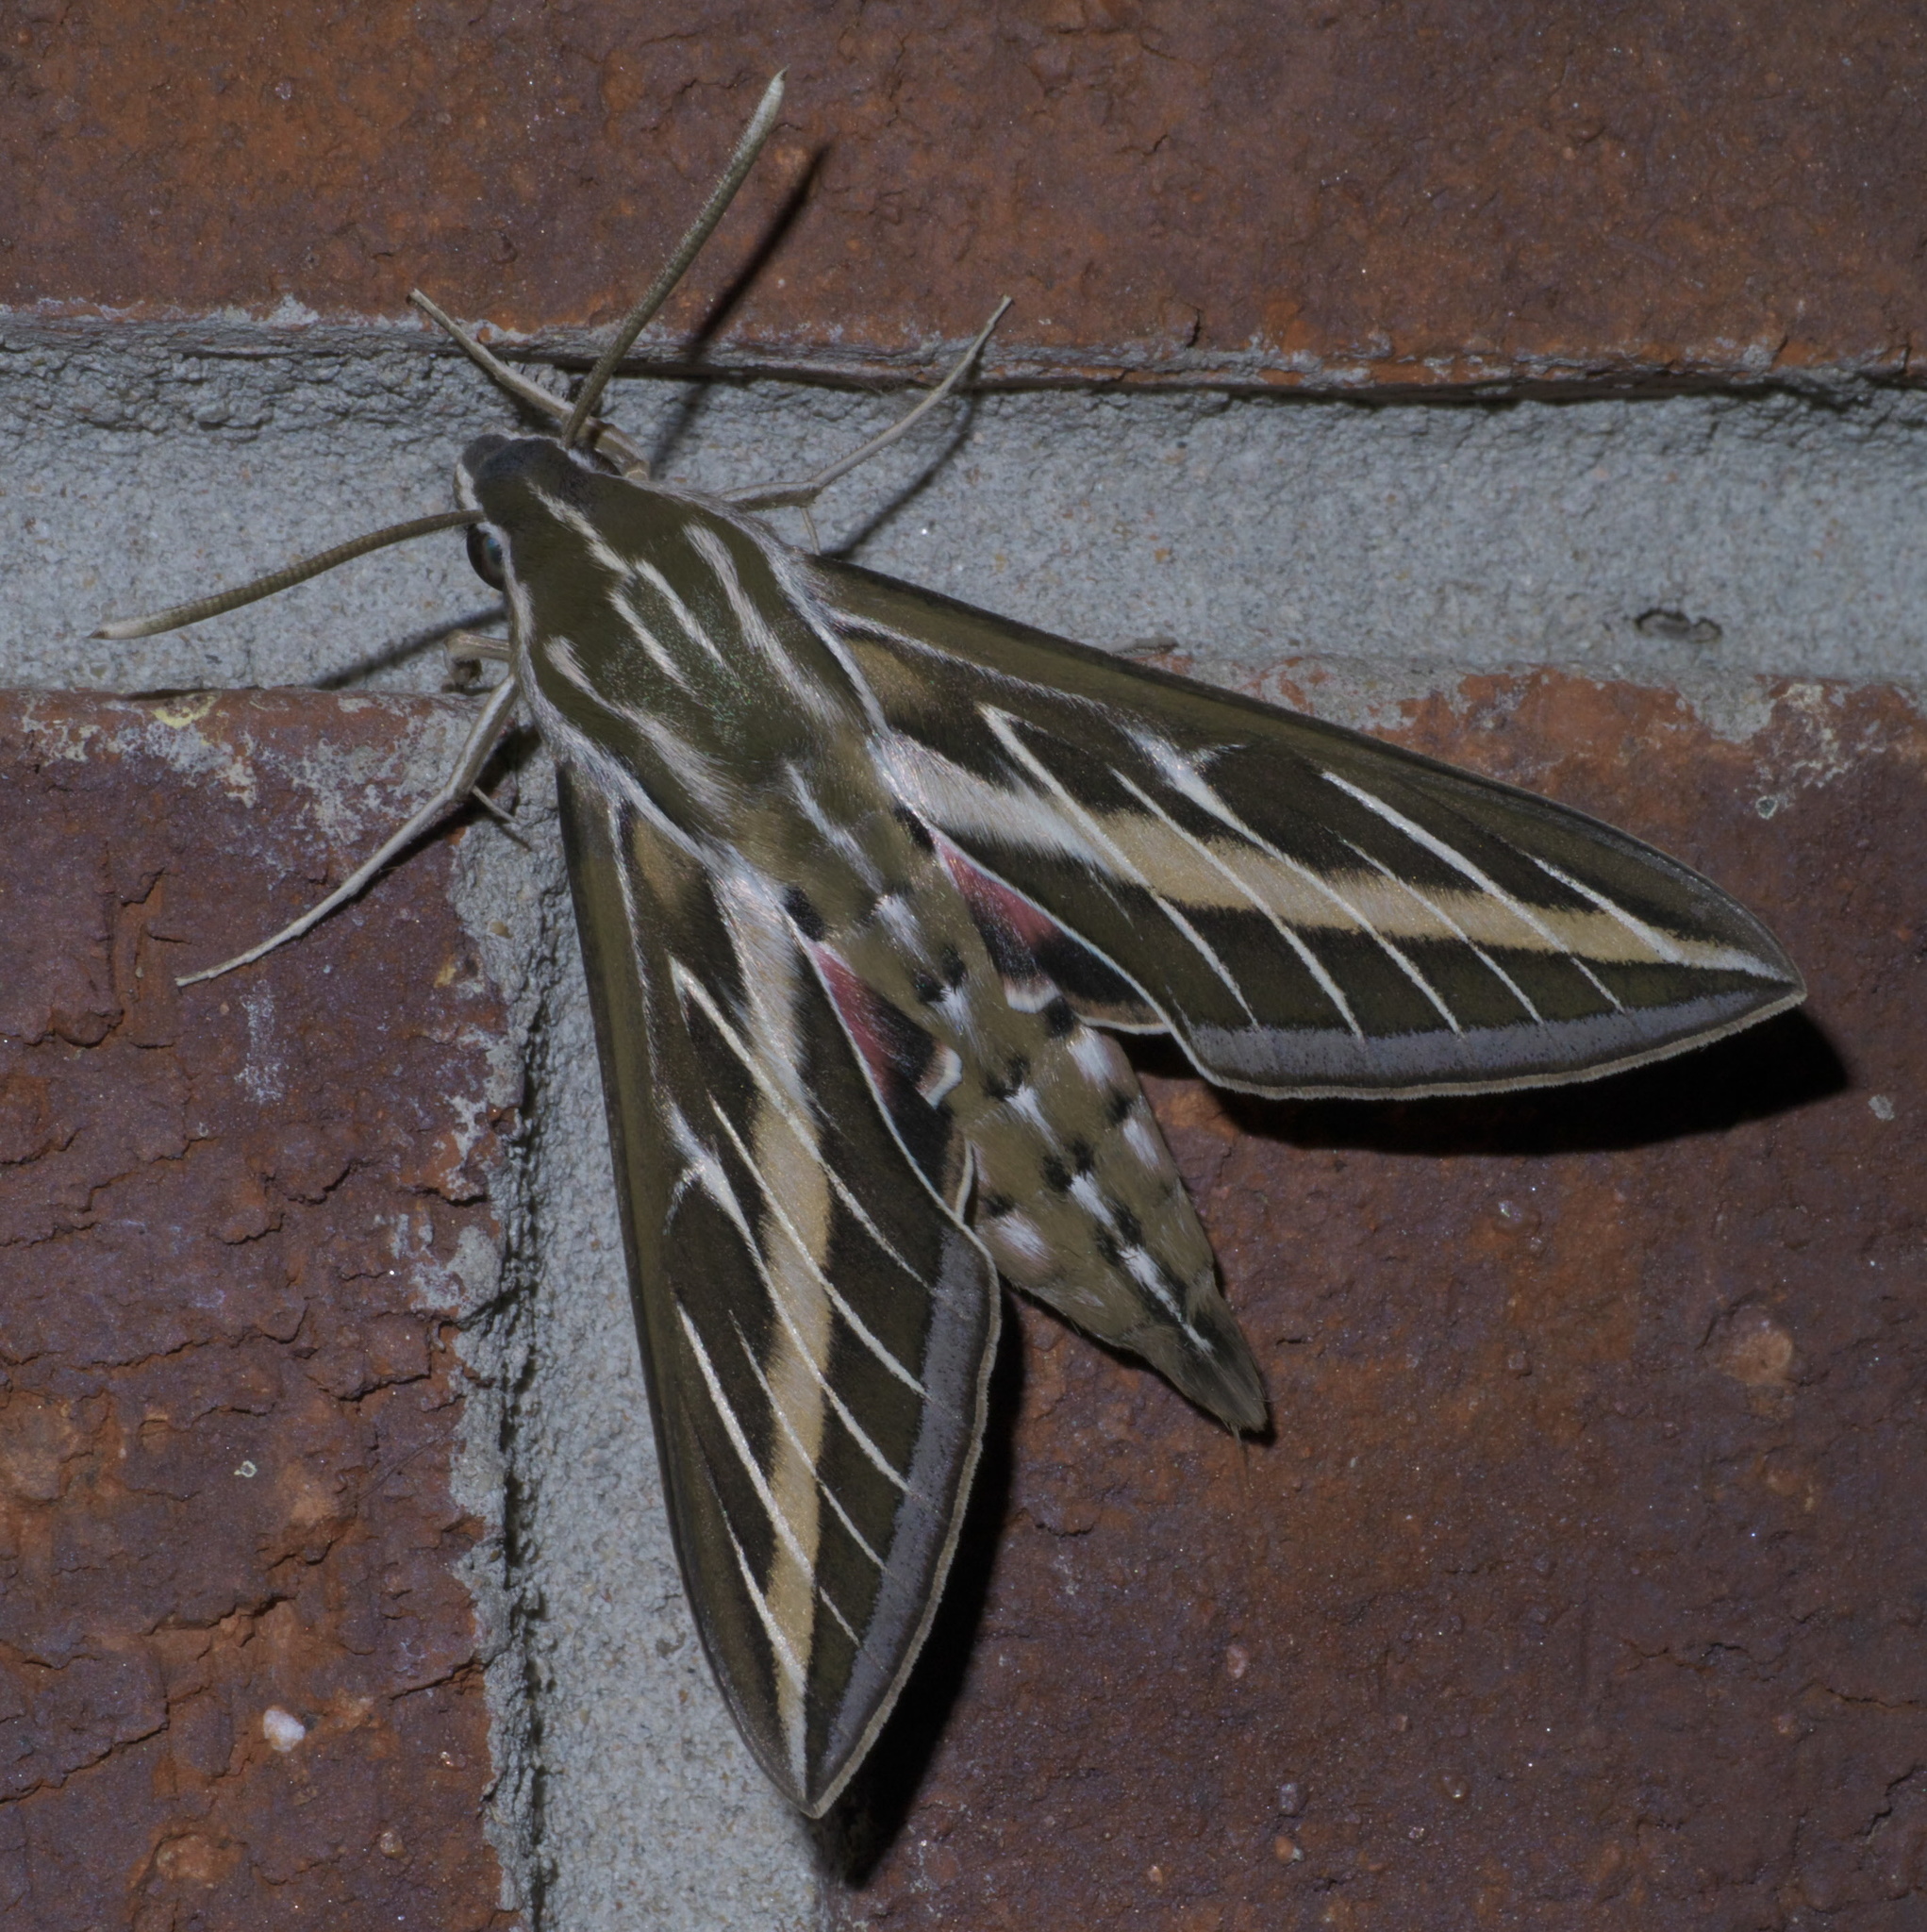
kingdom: Animalia
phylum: Arthropoda
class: Insecta
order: Lepidoptera
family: Sphingidae
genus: Hyles
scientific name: Hyles lineata
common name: White-lined sphinx
